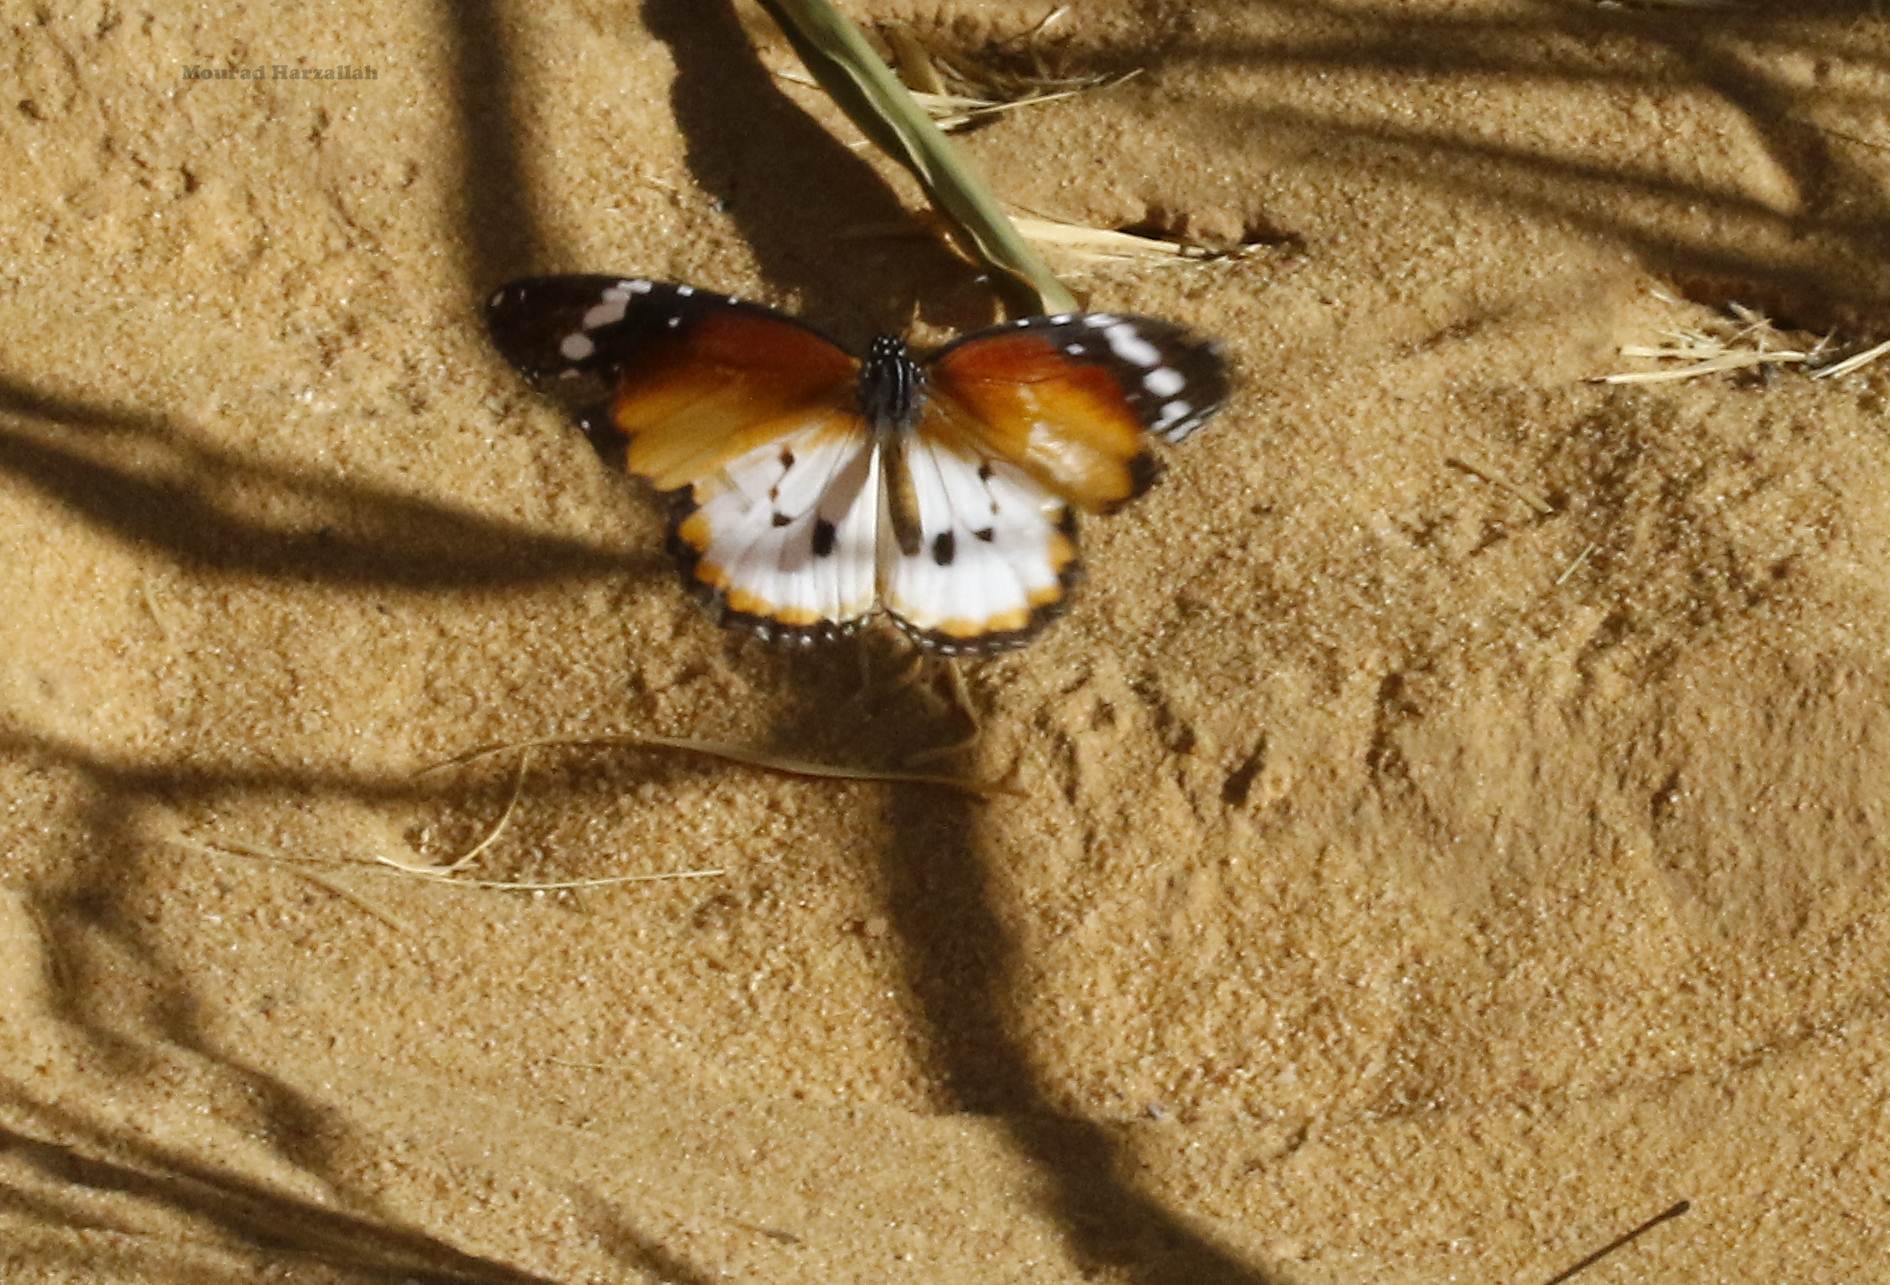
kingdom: Animalia
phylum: Arthropoda
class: Insecta
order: Lepidoptera
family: Nymphalidae
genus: Danaus
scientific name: Danaus chrysippus
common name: Plain tiger
